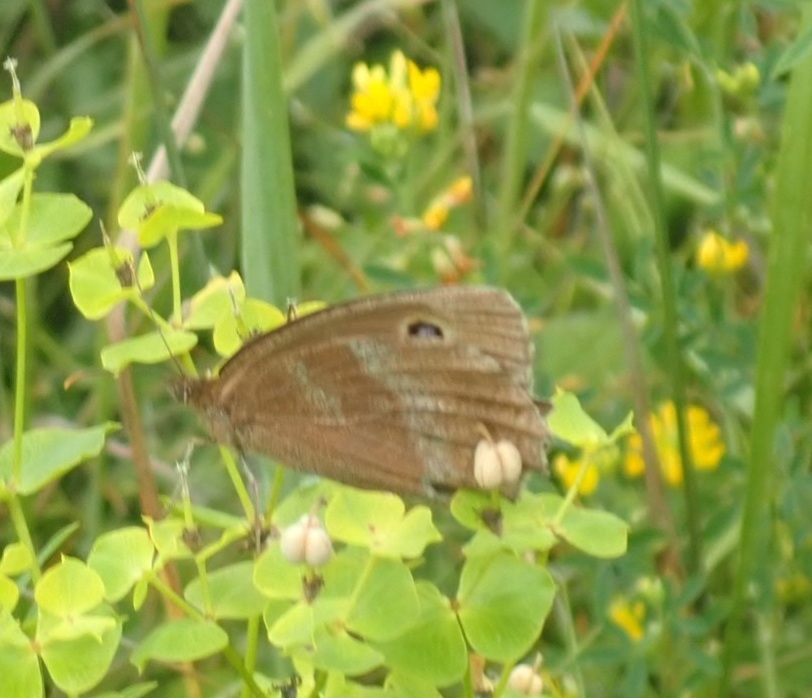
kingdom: Animalia
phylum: Arthropoda
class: Insecta
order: Lepidoptera
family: Nymphalidae
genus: Minois
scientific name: Minois dryas
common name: Dryad
